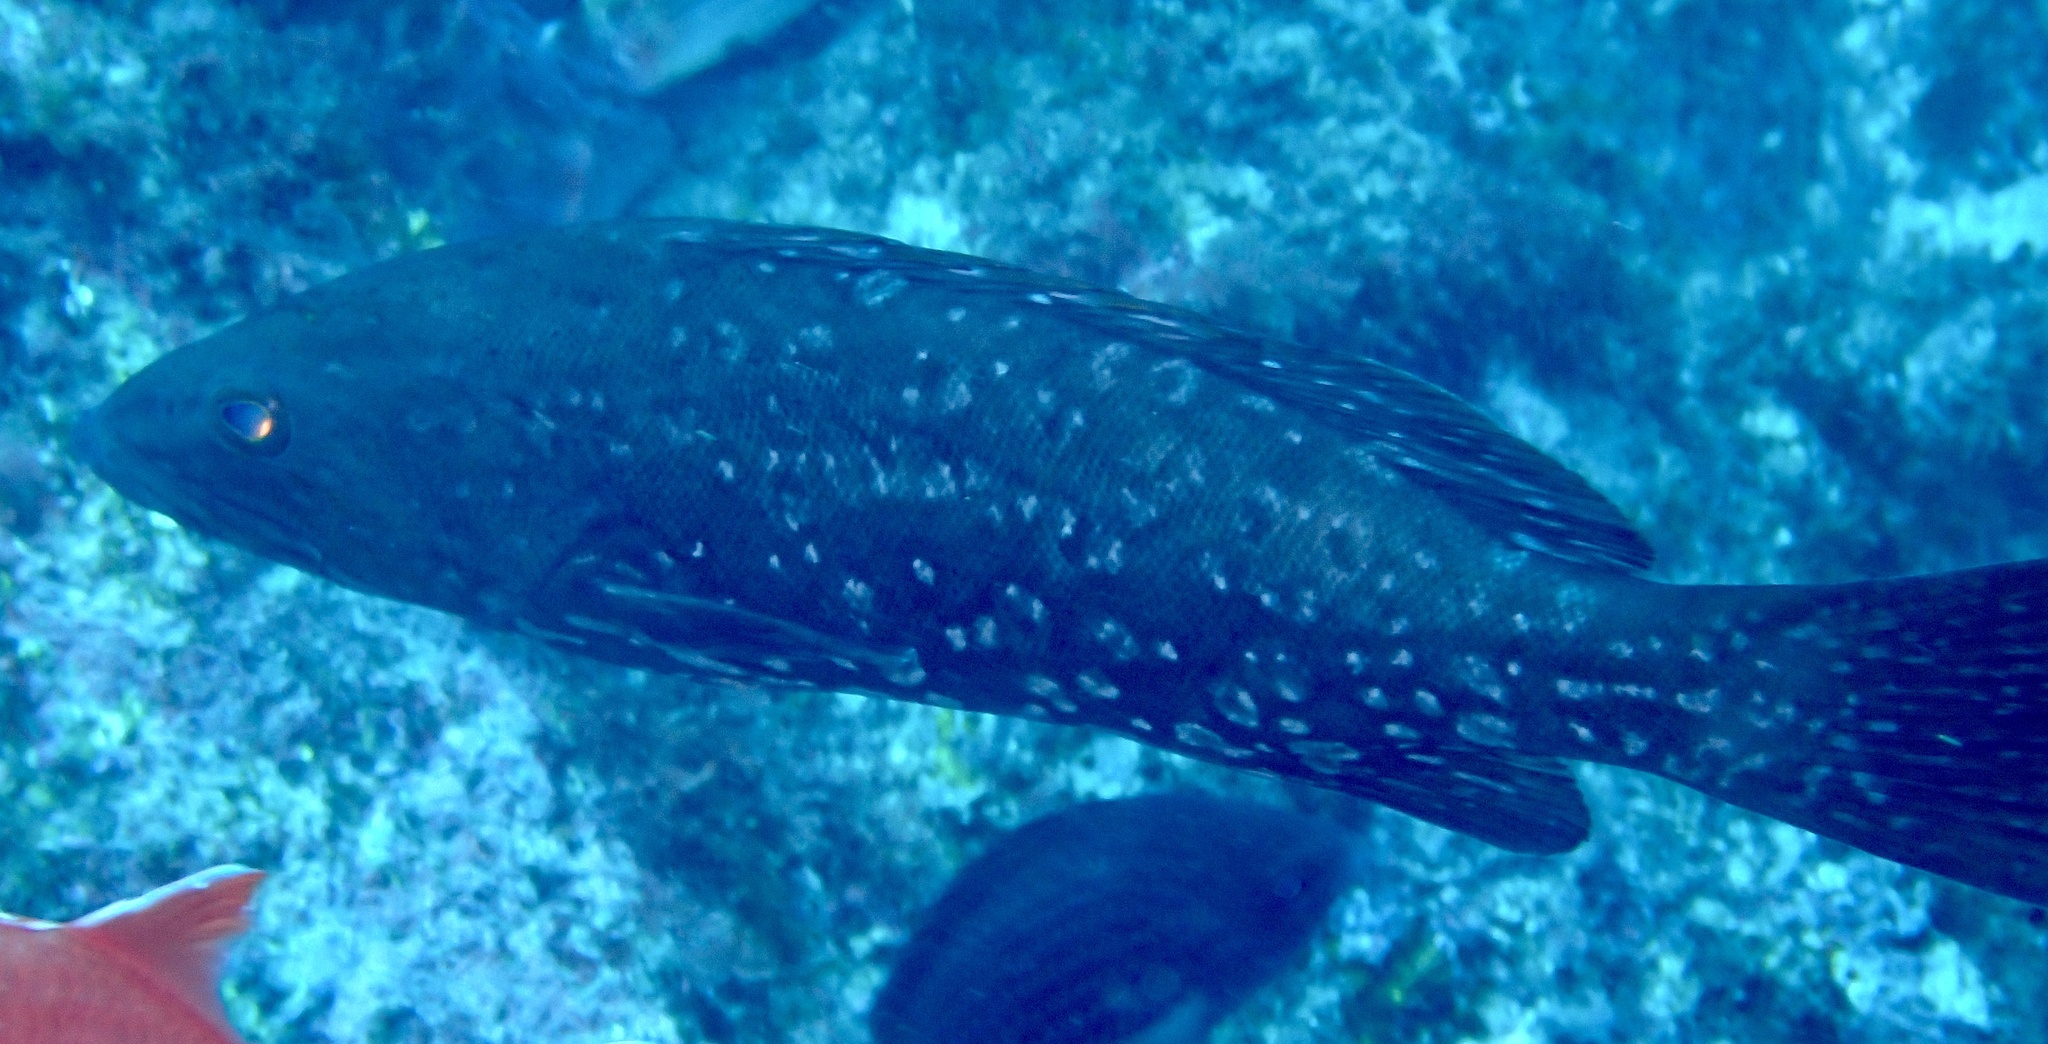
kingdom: Animalia
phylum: Chordata
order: Perciformes
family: Serranidae
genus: Mycteroperca
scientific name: Mycteroperca fusca
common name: Island grouper
